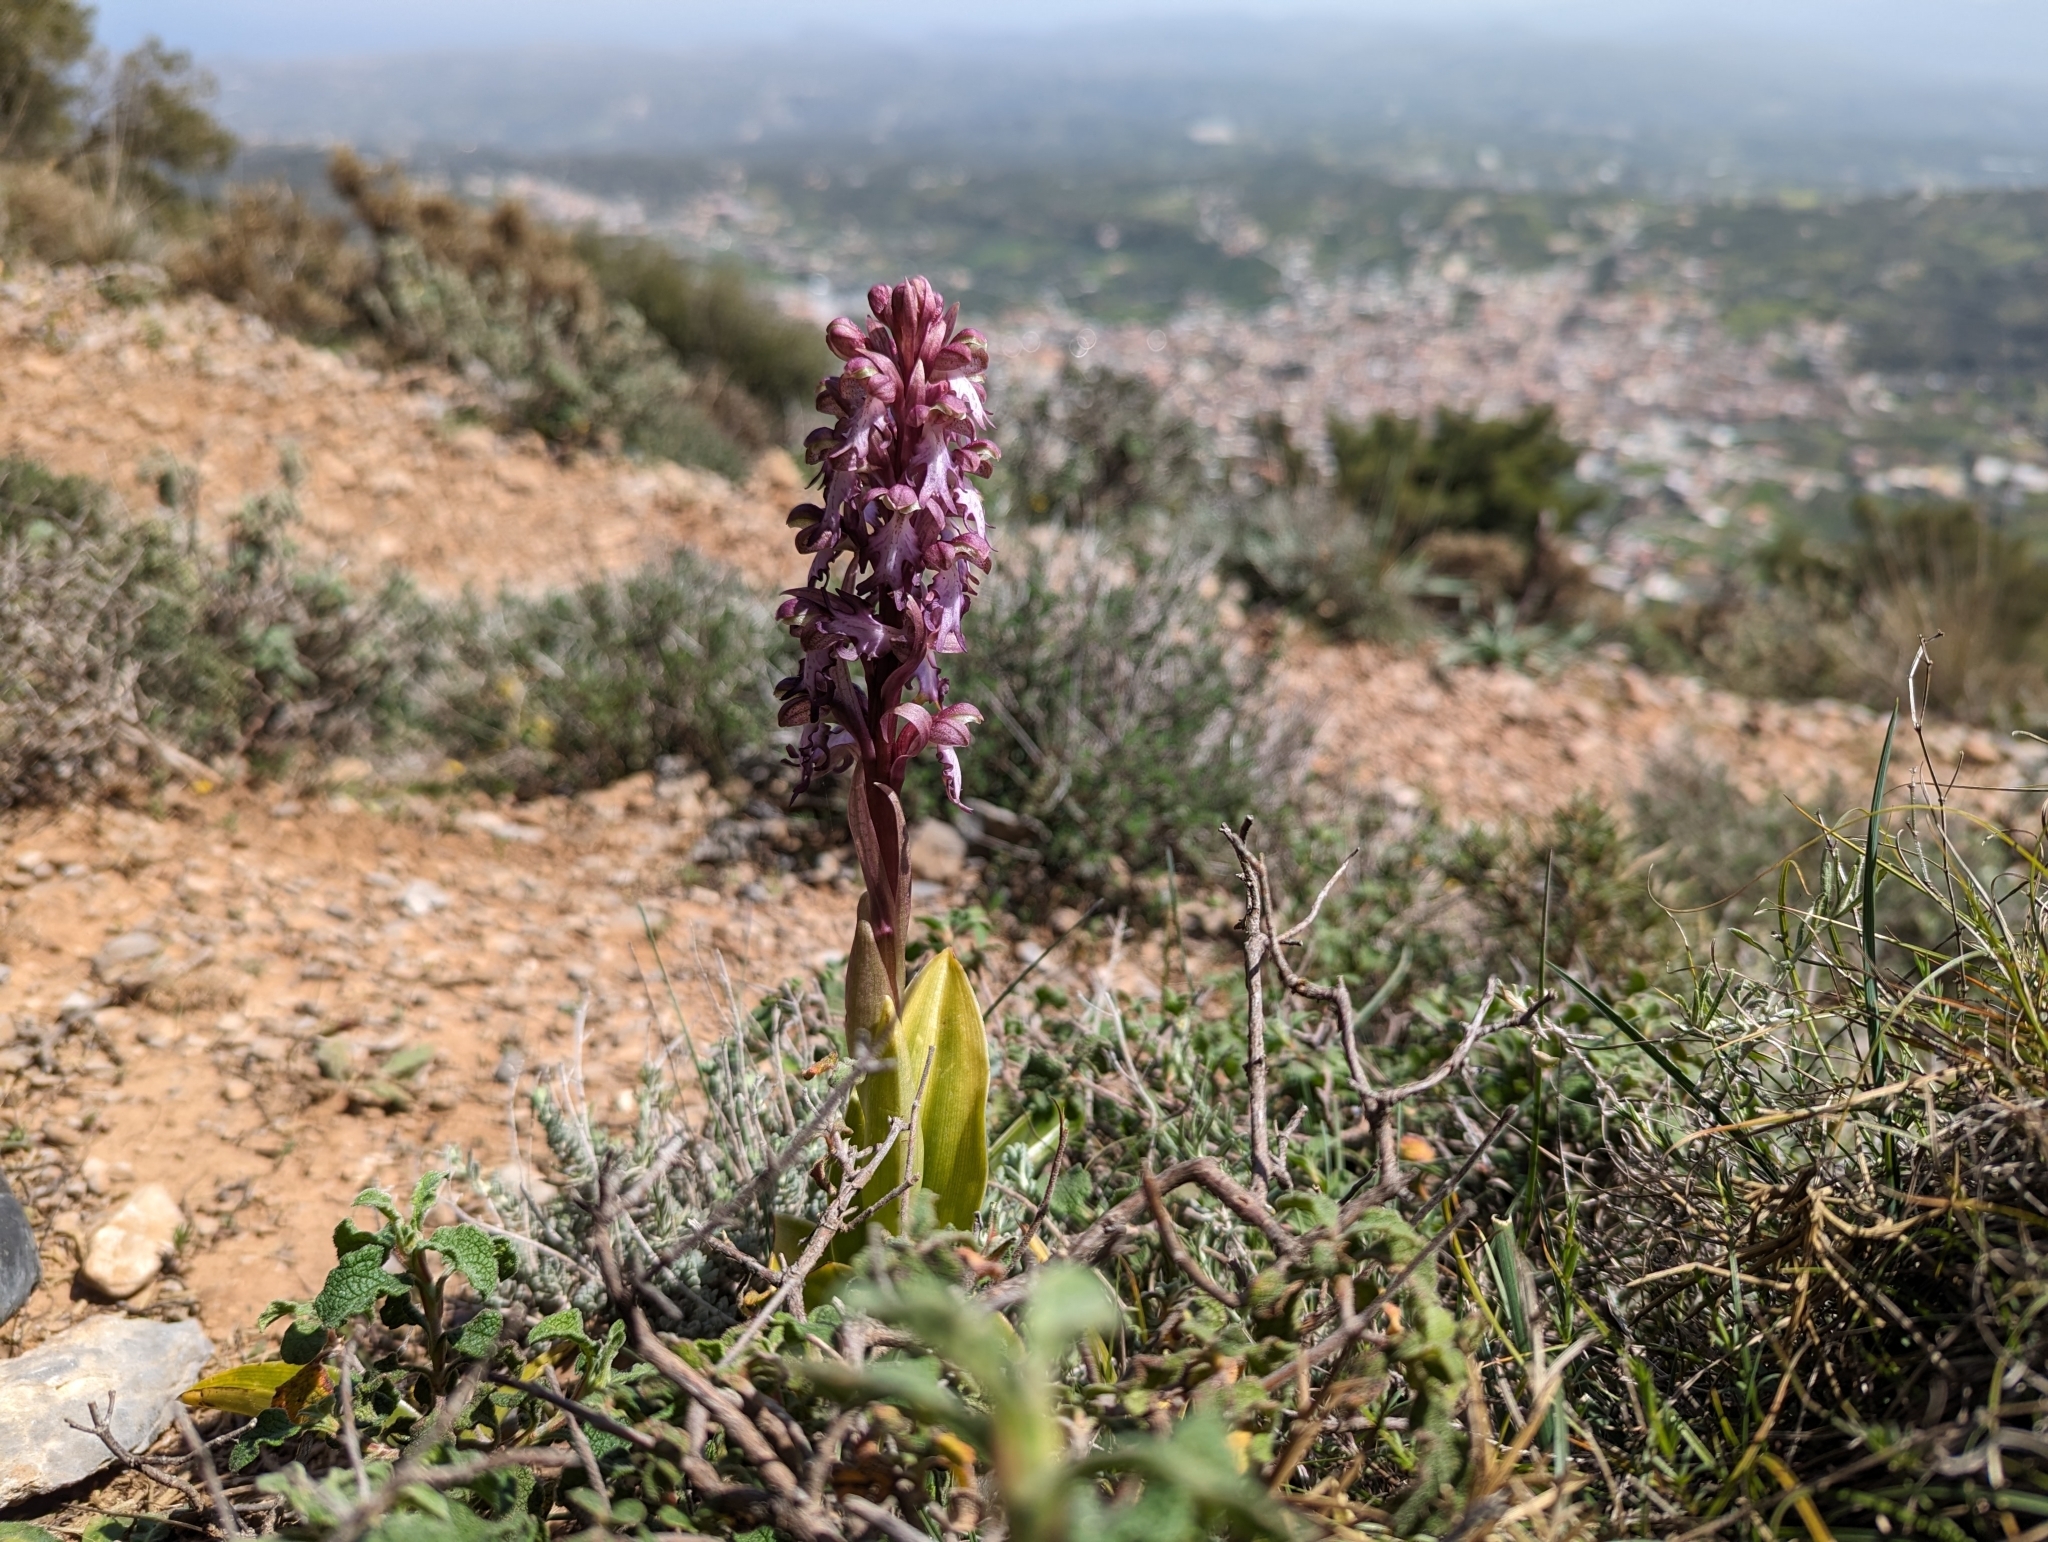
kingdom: Plantae
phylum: Tracheophyta
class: Liliopsida
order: Asparagales
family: Orchidaceae
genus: Himantoglossum
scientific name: Himantoglossum robertianum
